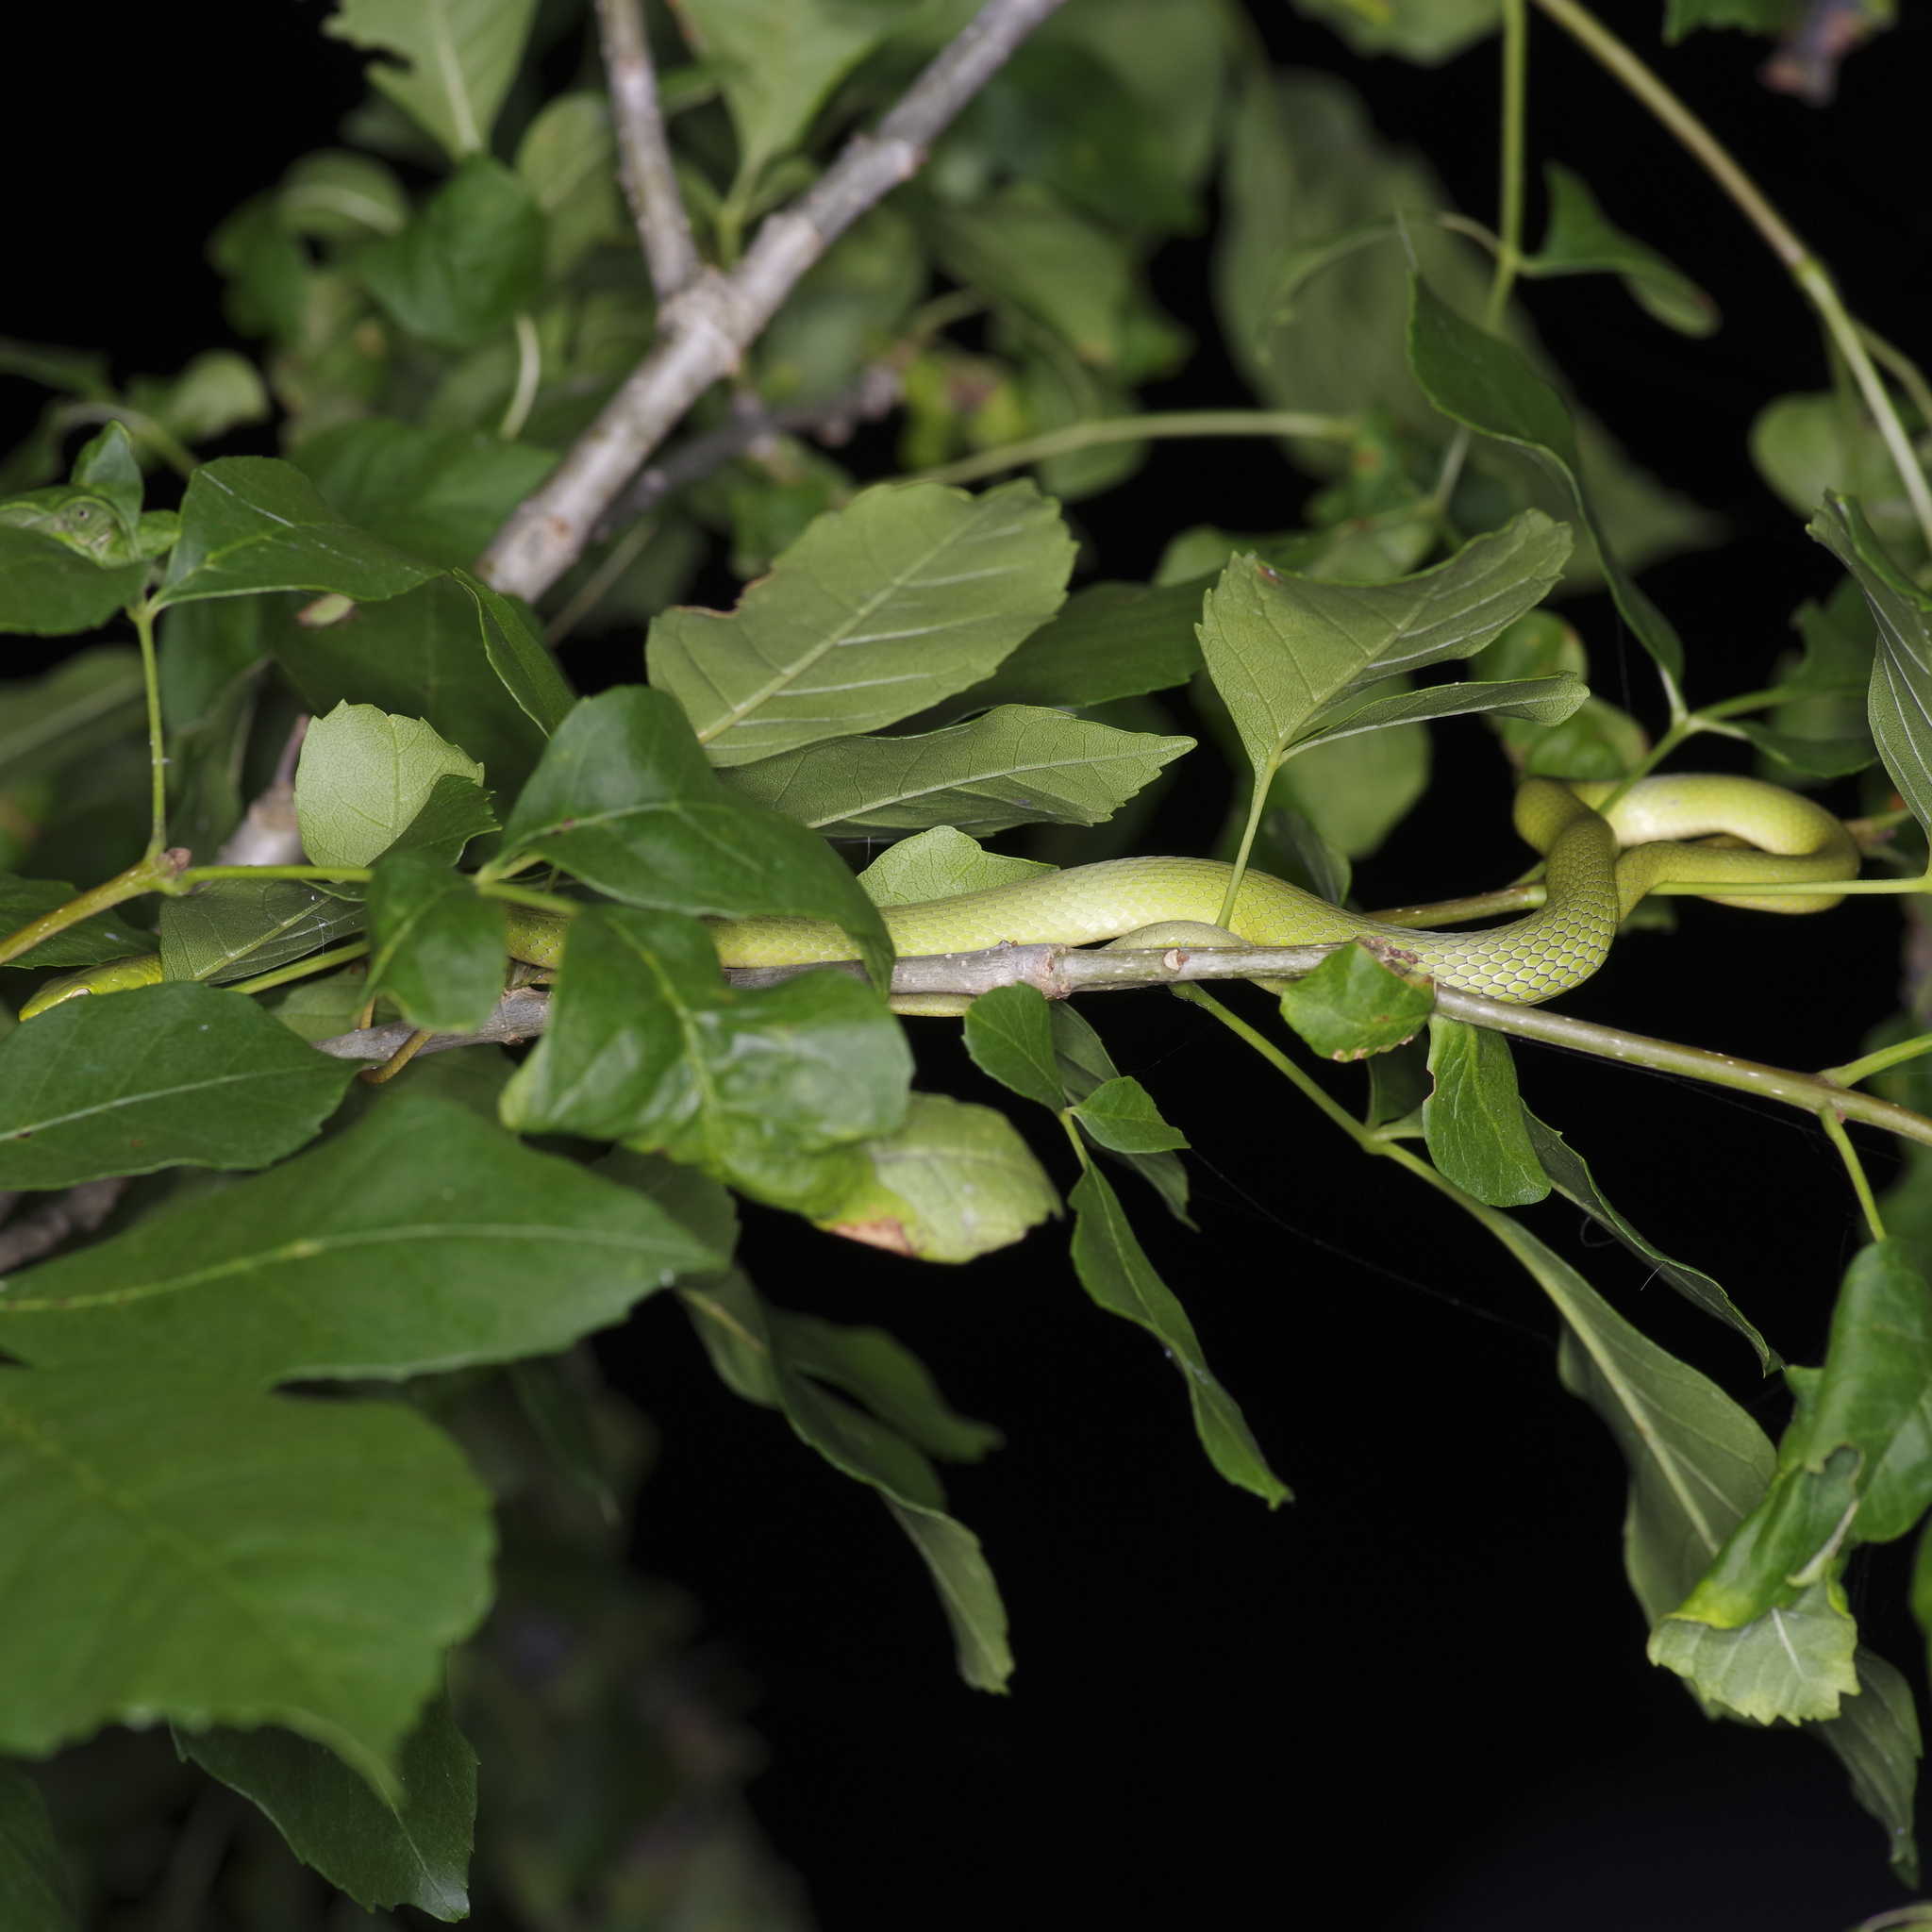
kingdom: Animalia
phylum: Chordata
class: Squamata
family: Colubridae
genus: Opheodrys
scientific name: Opheodrys aestivus
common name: Rough greensnake
